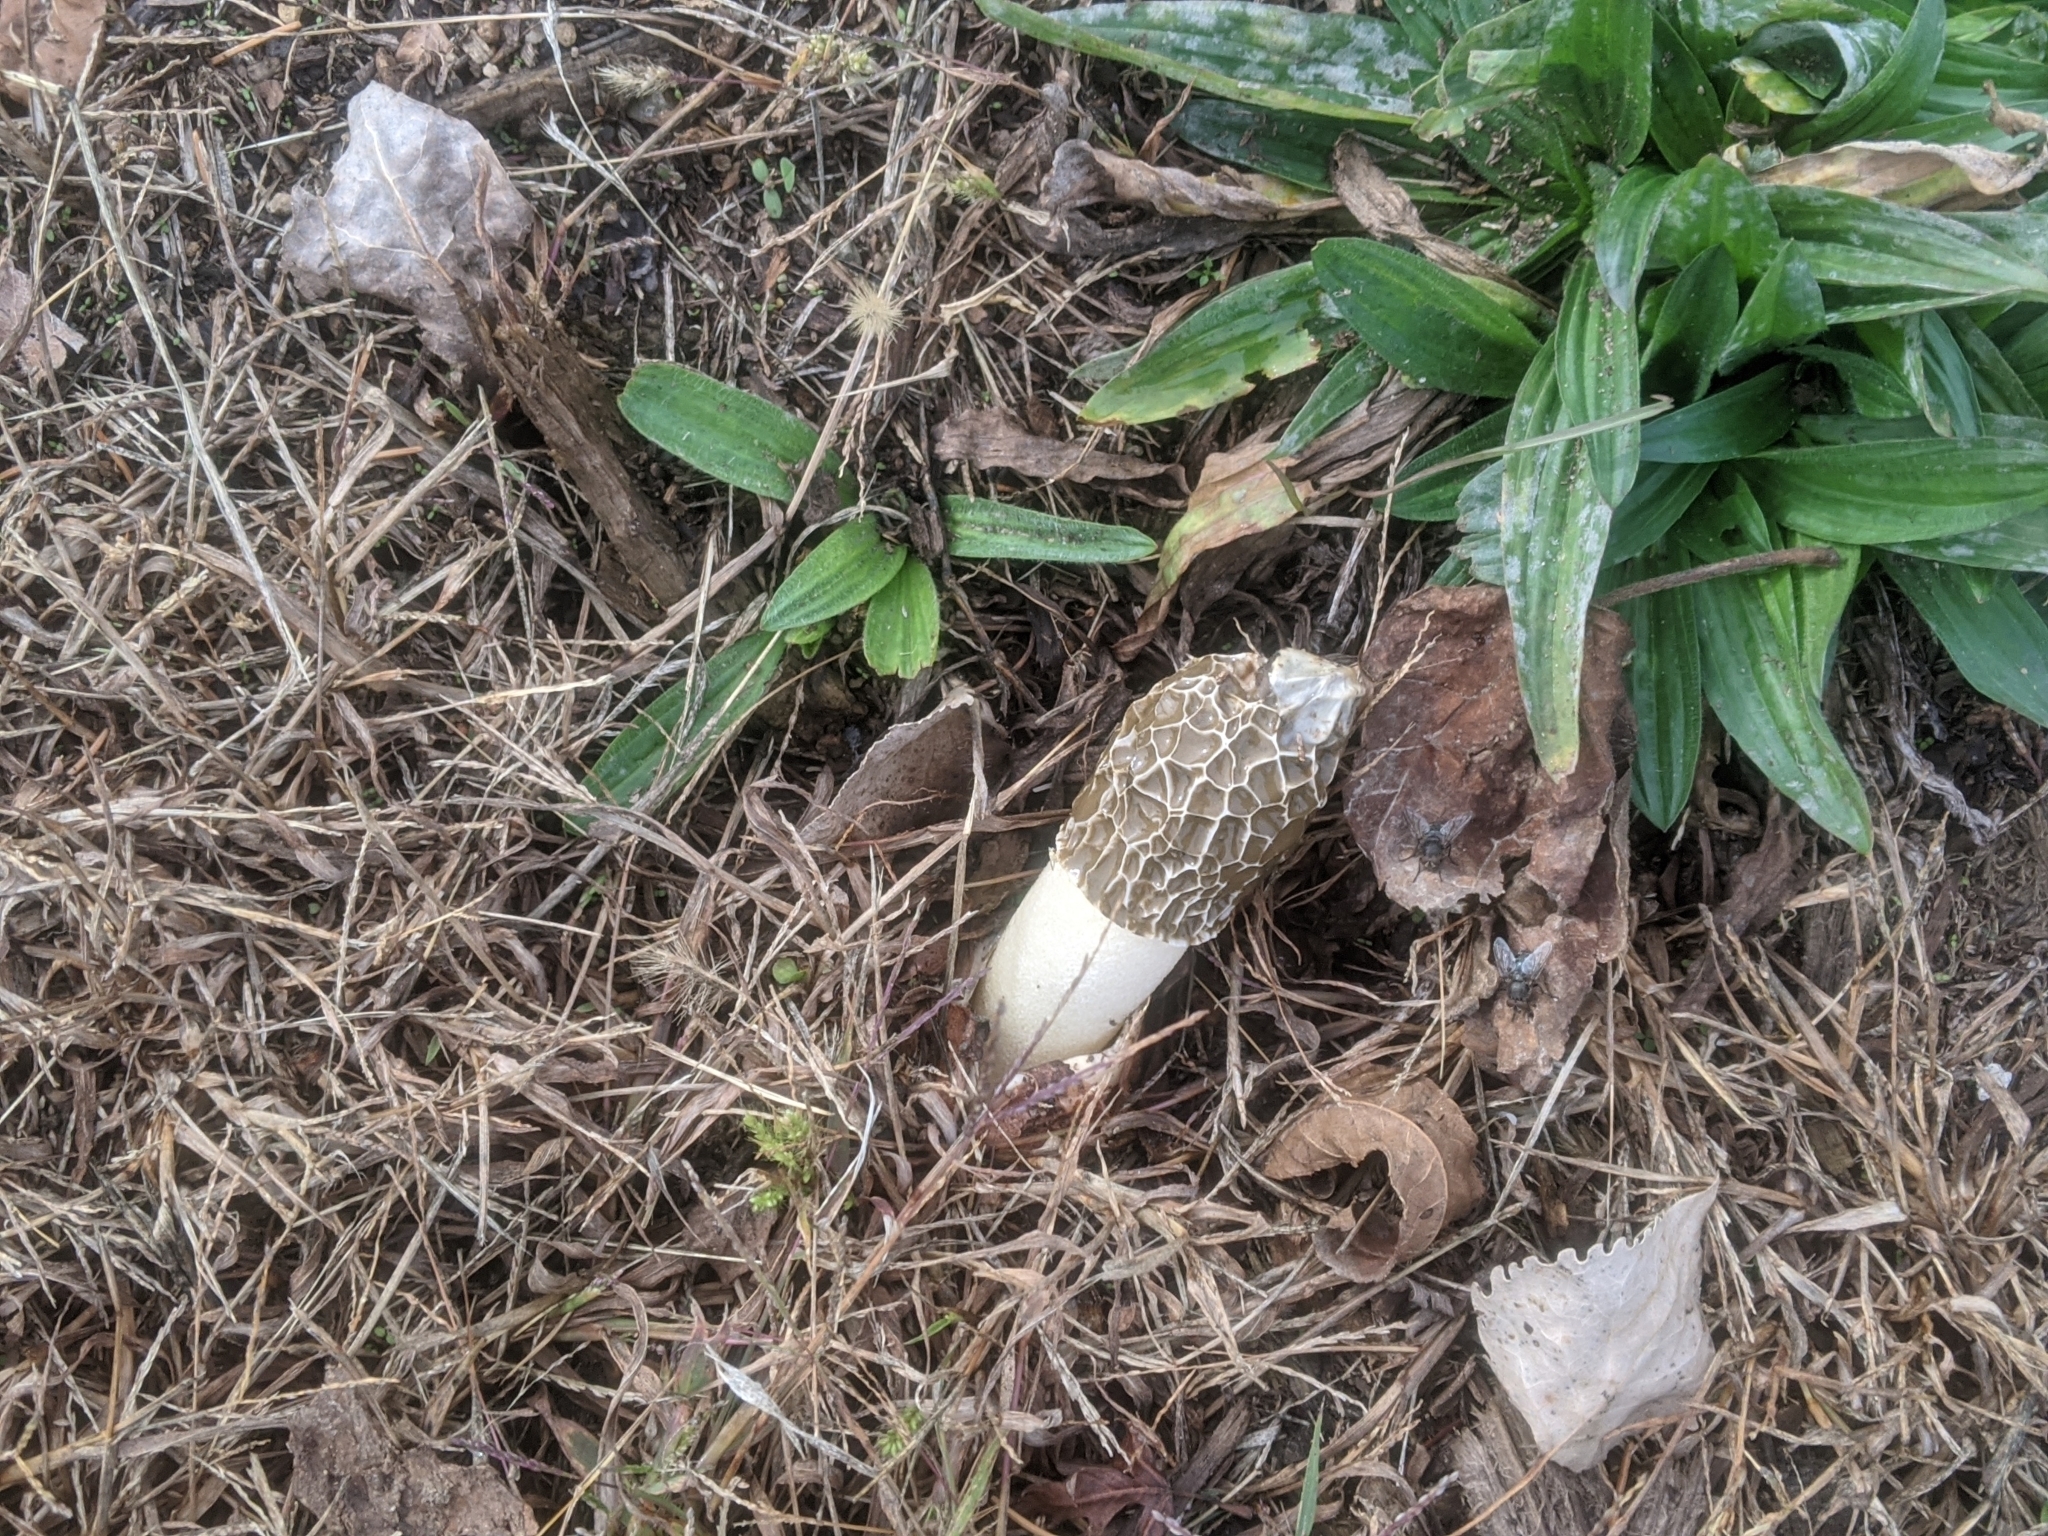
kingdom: Fungi
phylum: Basidiomycota
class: Agaricomycetes
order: Phallales
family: Phallaceae
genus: Mutinus
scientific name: Mutinus elegans
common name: Devil's dipstick
